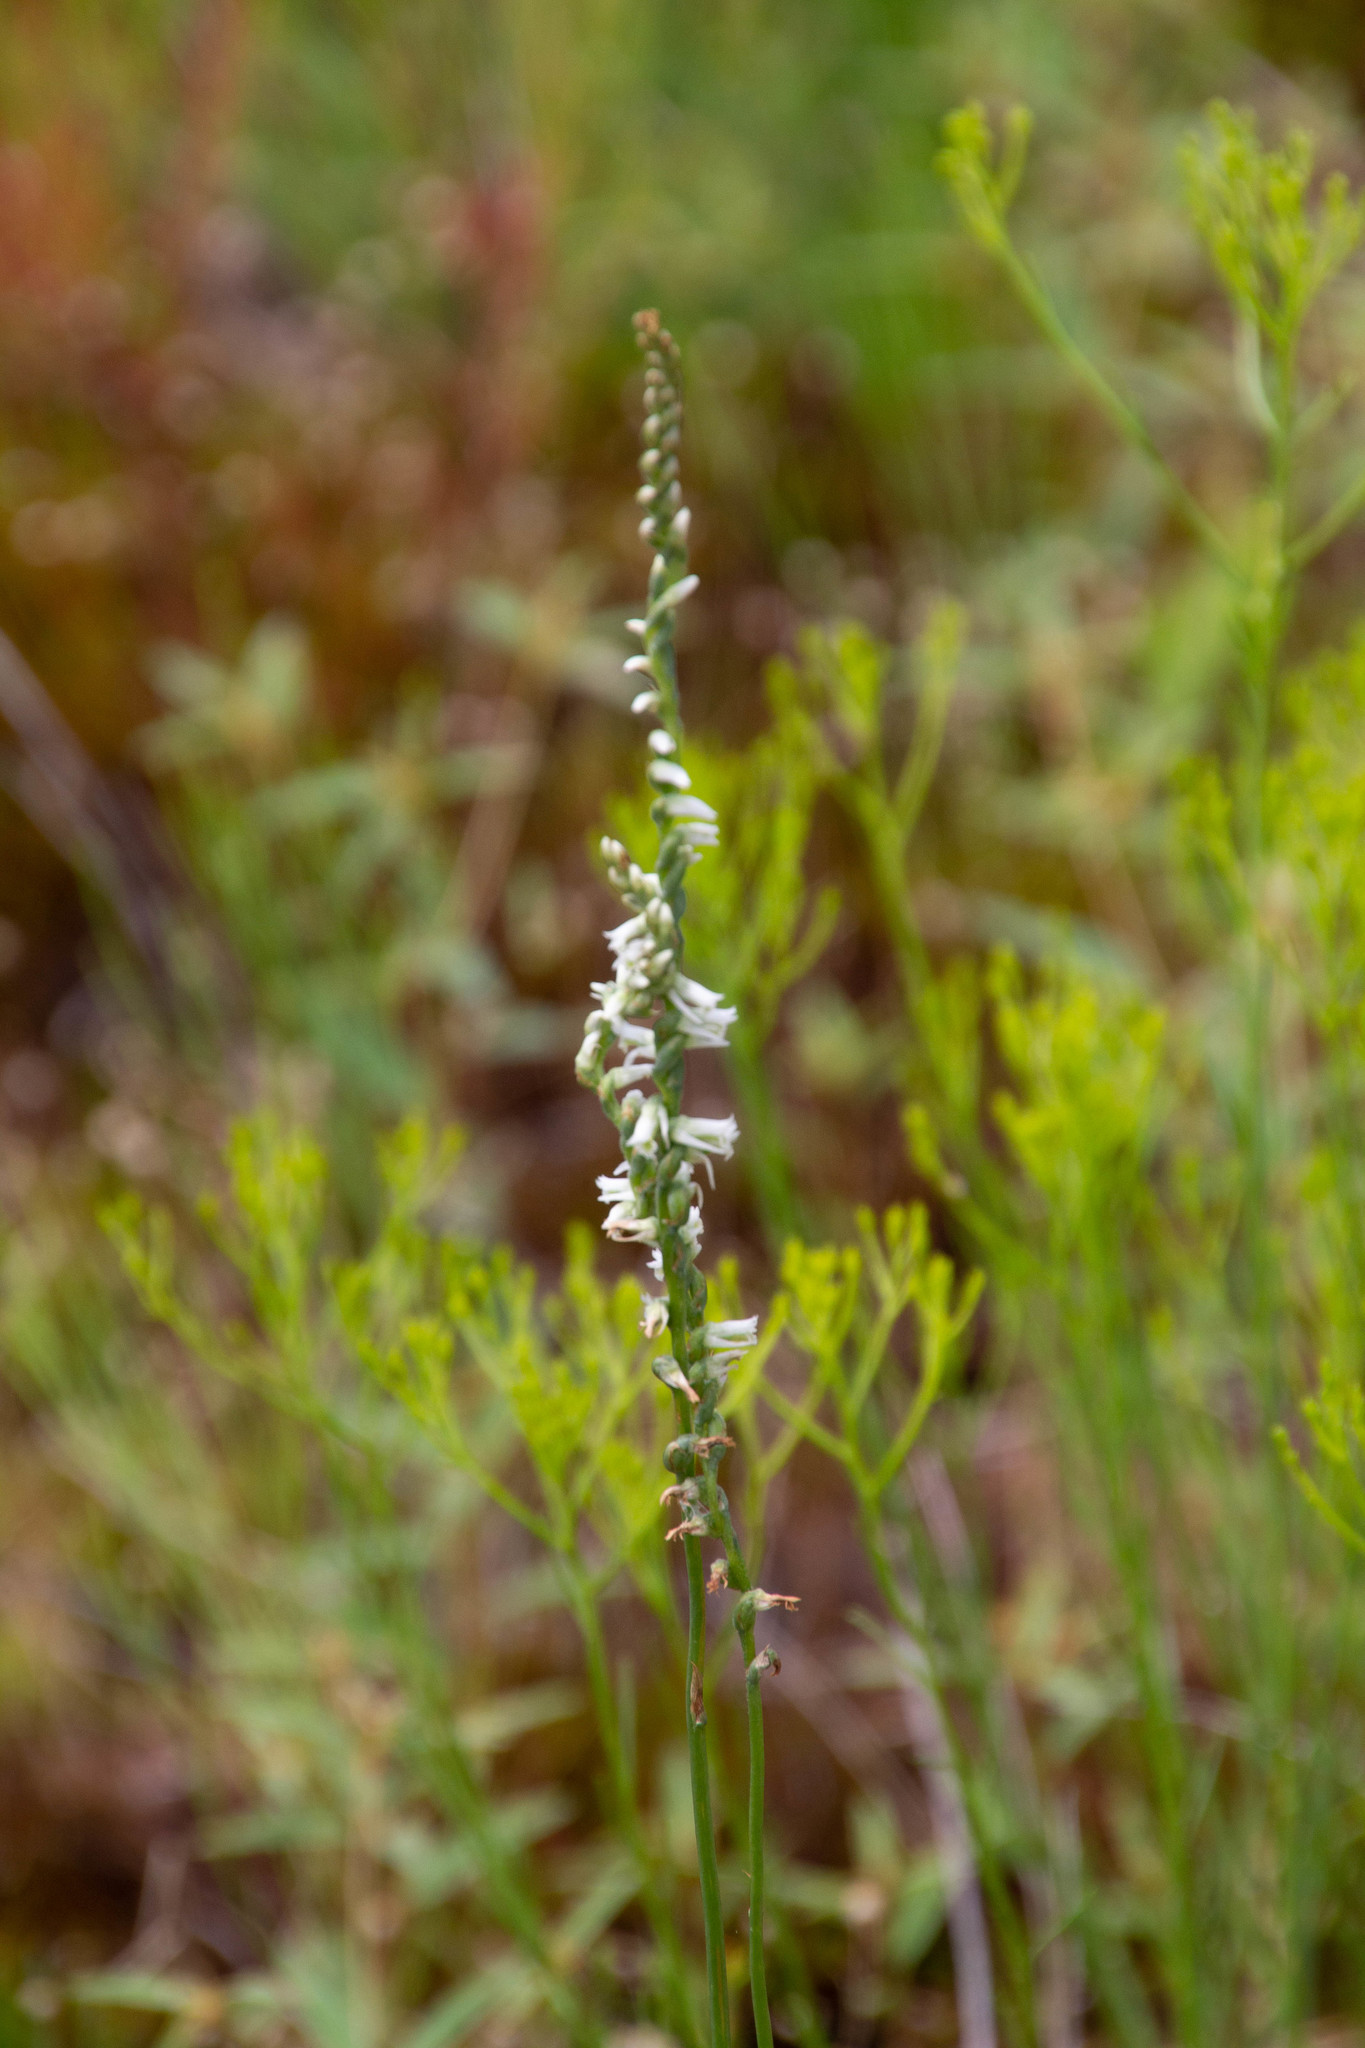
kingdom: Plantae
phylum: Tracheophyta
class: Liliopsida
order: Asparagales
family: Orchidaceae
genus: Spiranthes
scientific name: Spiranthes lacera
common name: Northern slender ladies'-tresses
